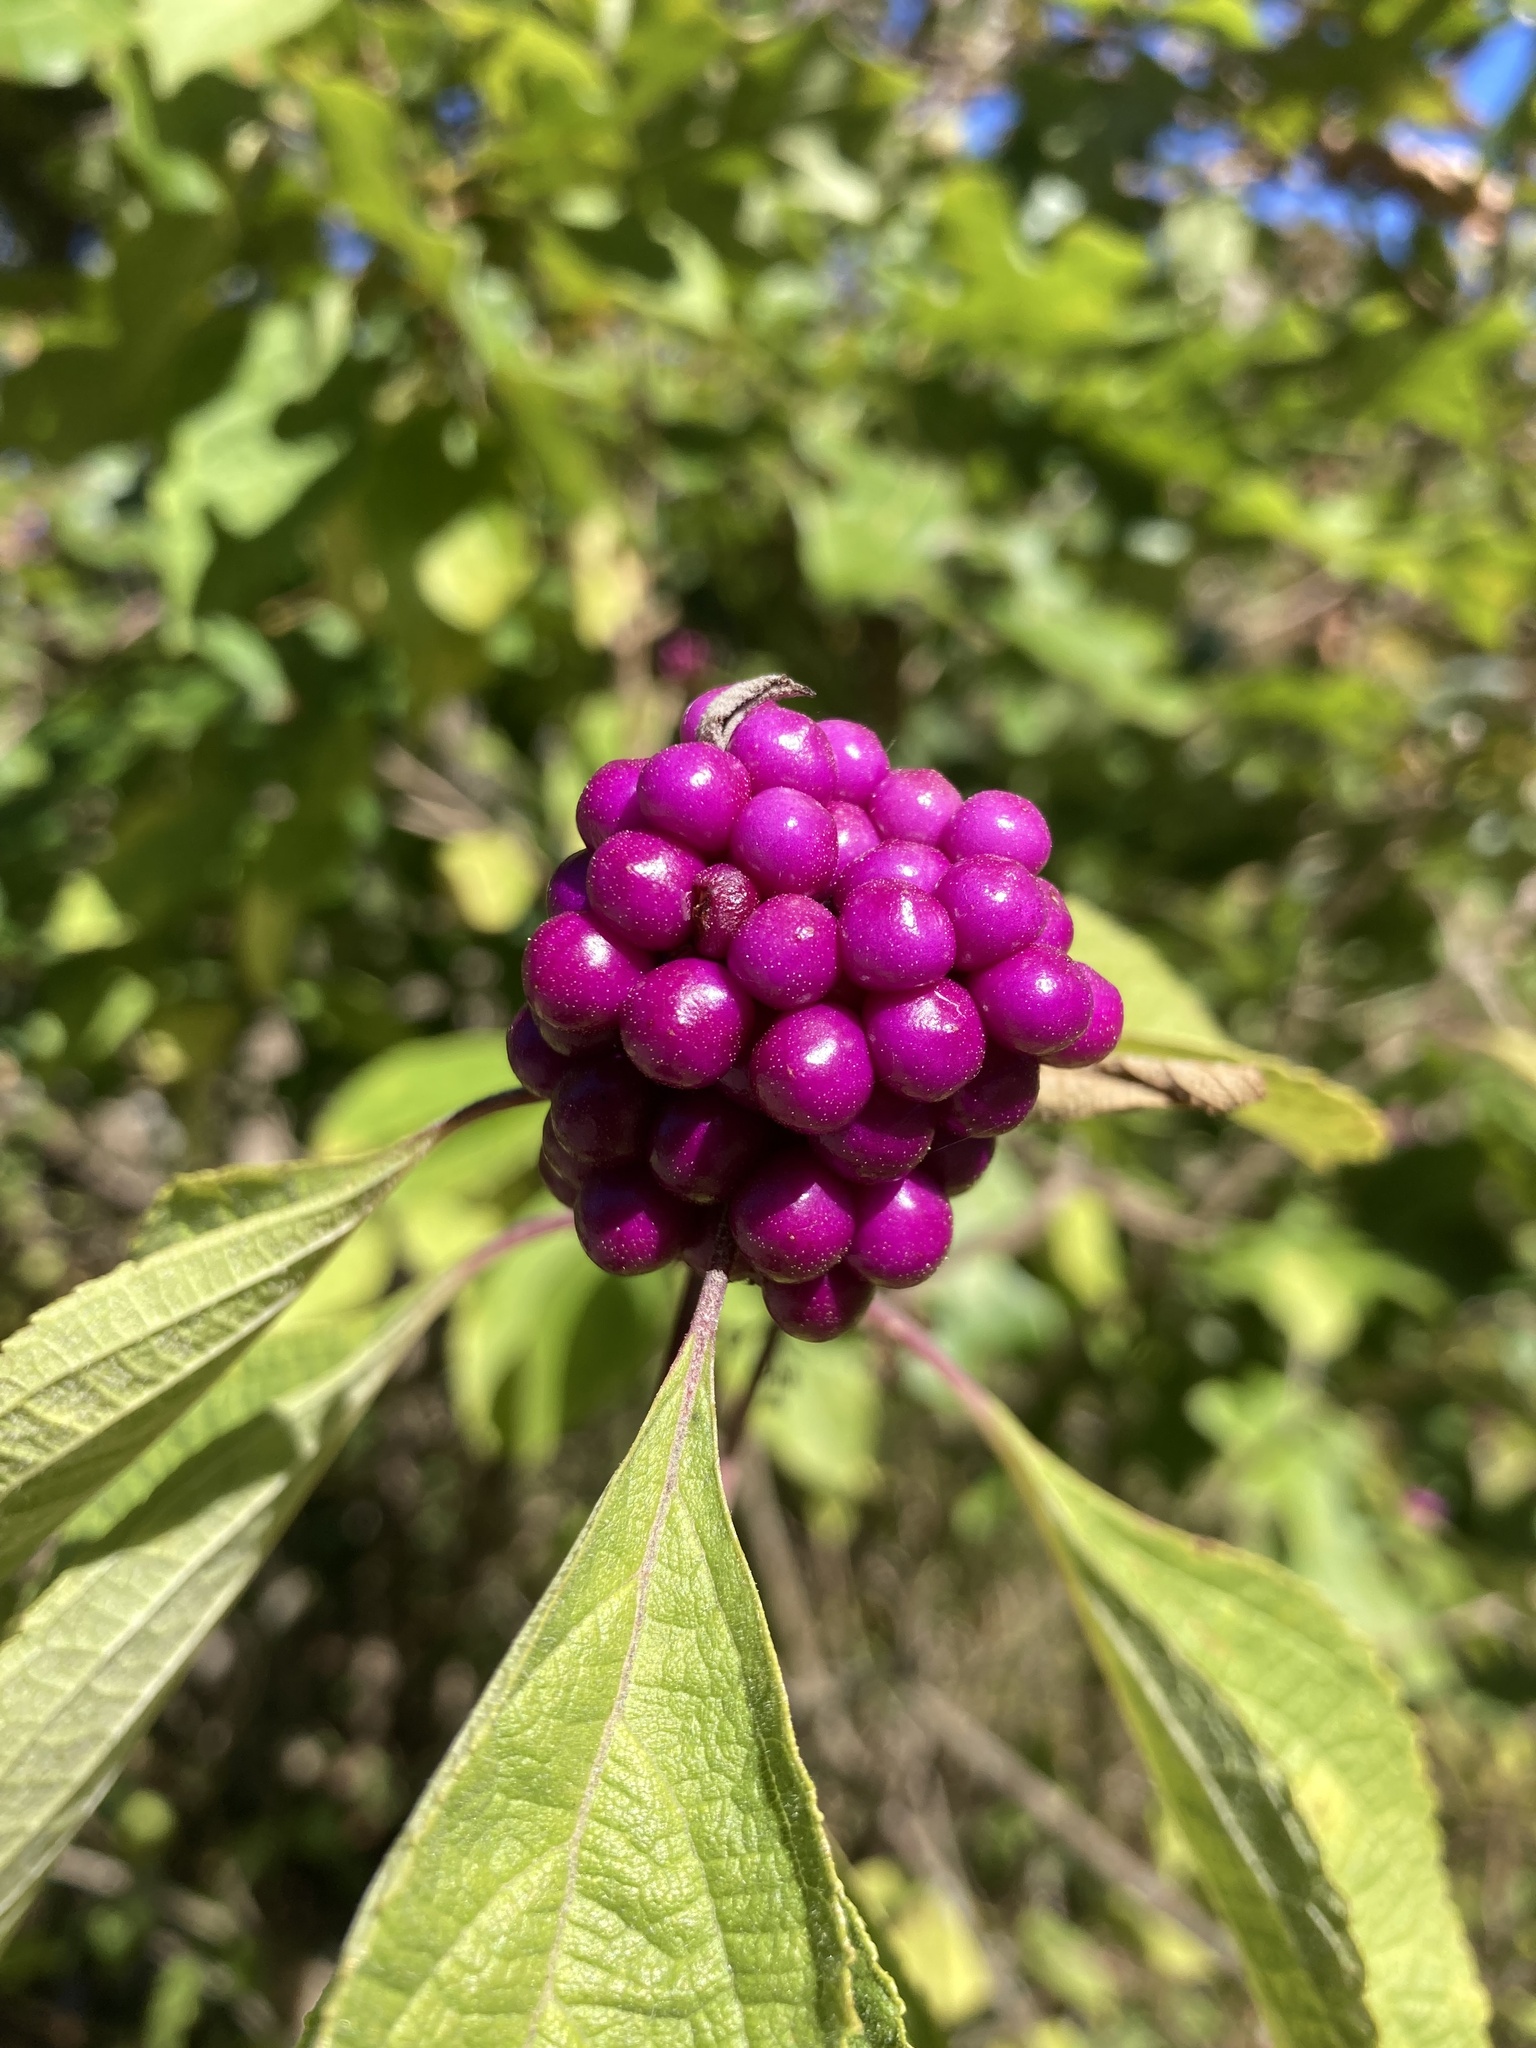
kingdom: Plantae
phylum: Tracheophyta
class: Magnoliopsida
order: Lamiales
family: Lamiaceae
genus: Callicarpa
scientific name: Callicarpa americana
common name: American beautyberry
